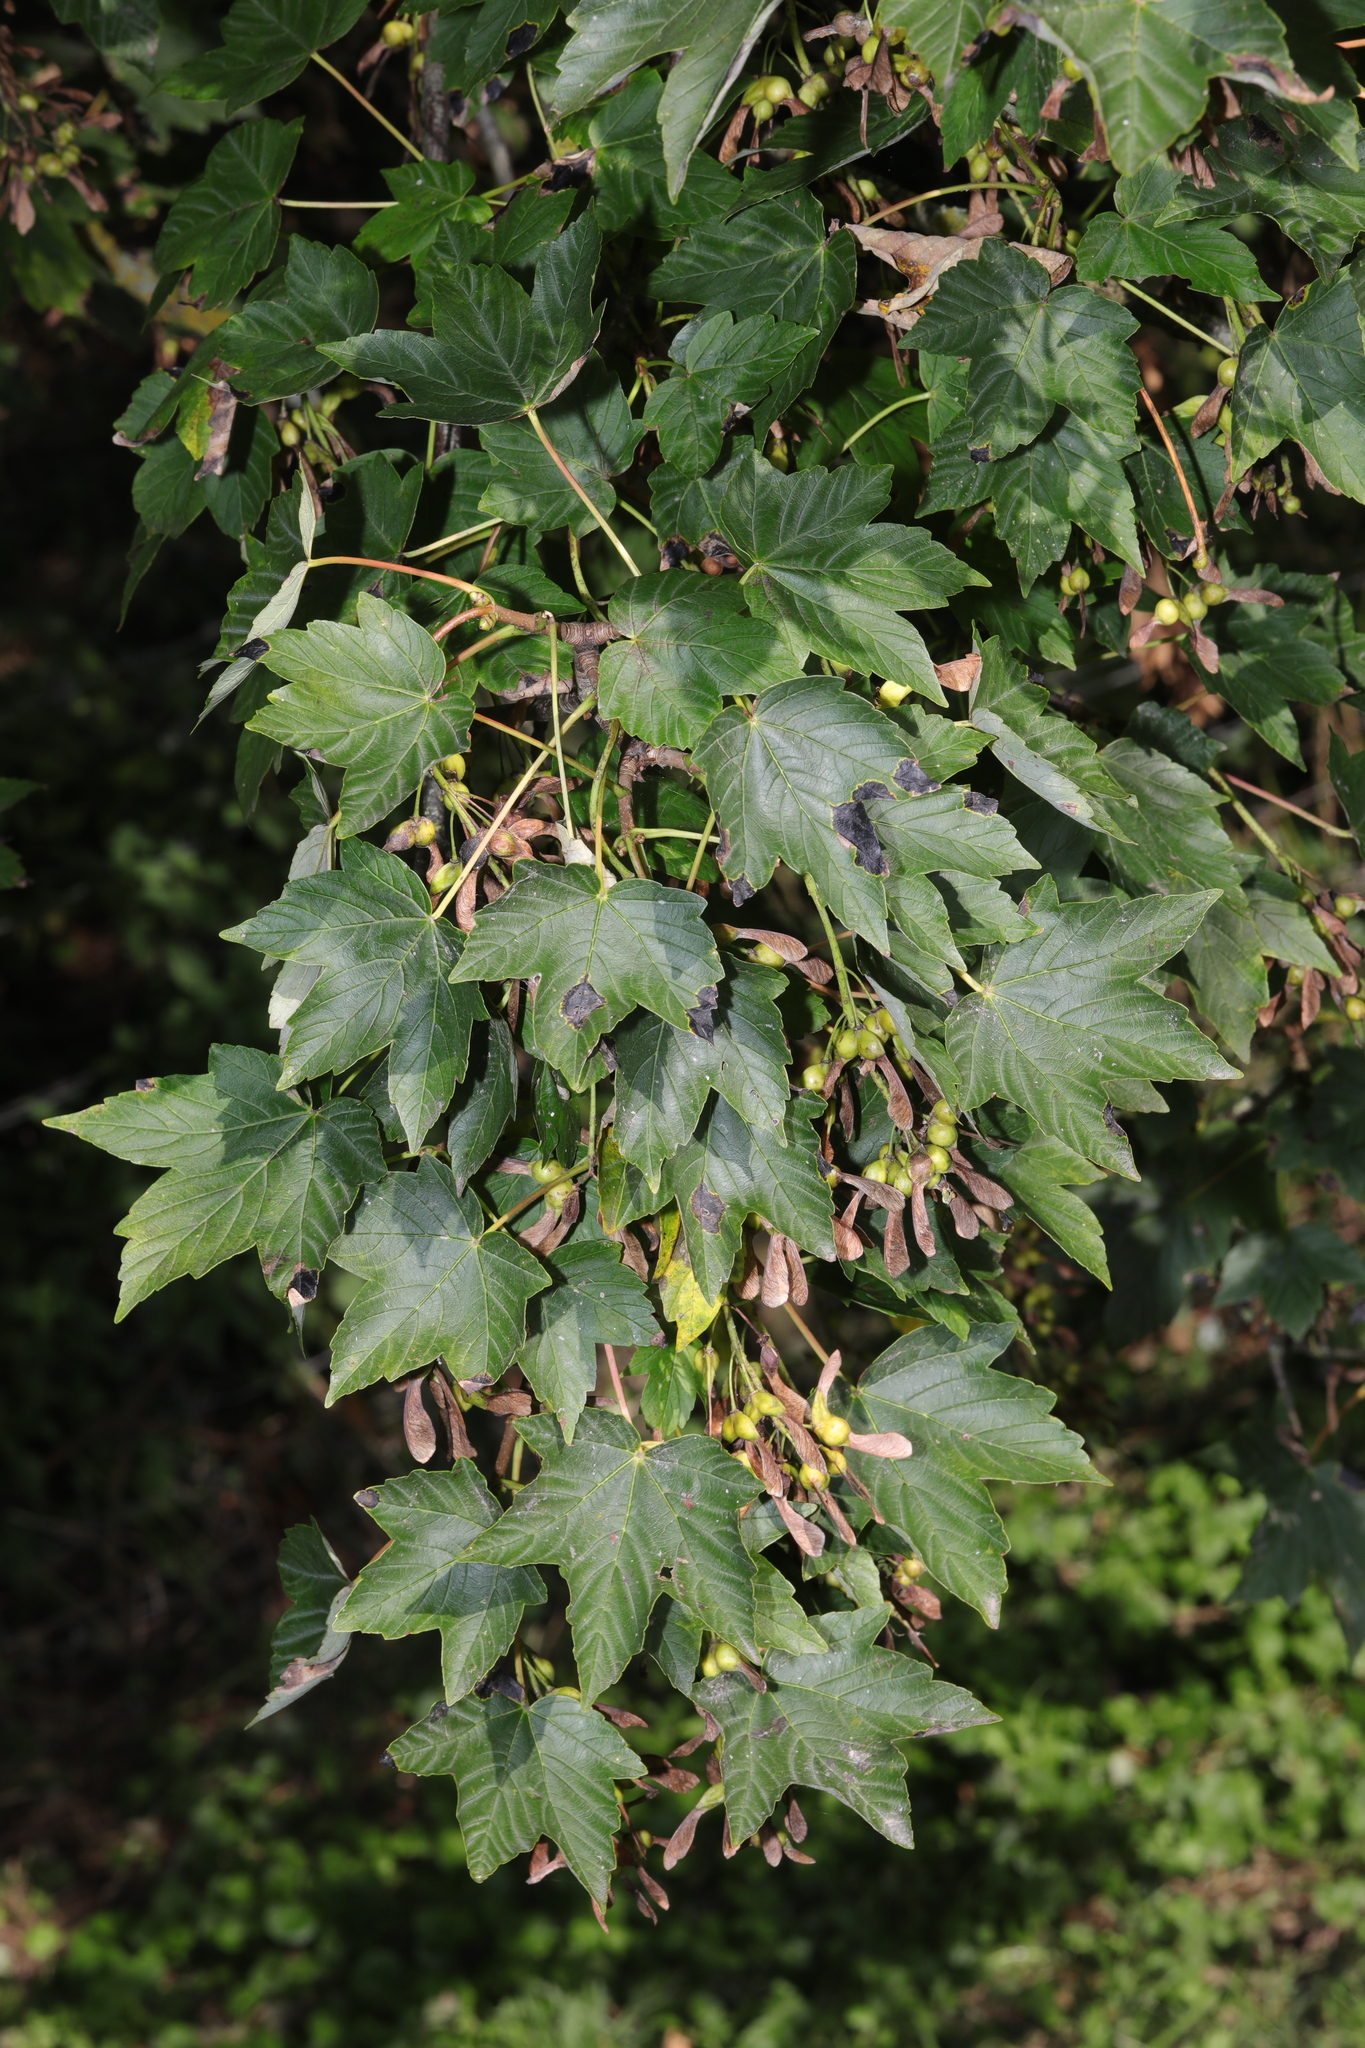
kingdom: Plantae
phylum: Tracheophyta
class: Magnoliopsida
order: Sapindales
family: Sapindaceae
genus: Acer
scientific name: Acer pseudoplatanus
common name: Sycamore
